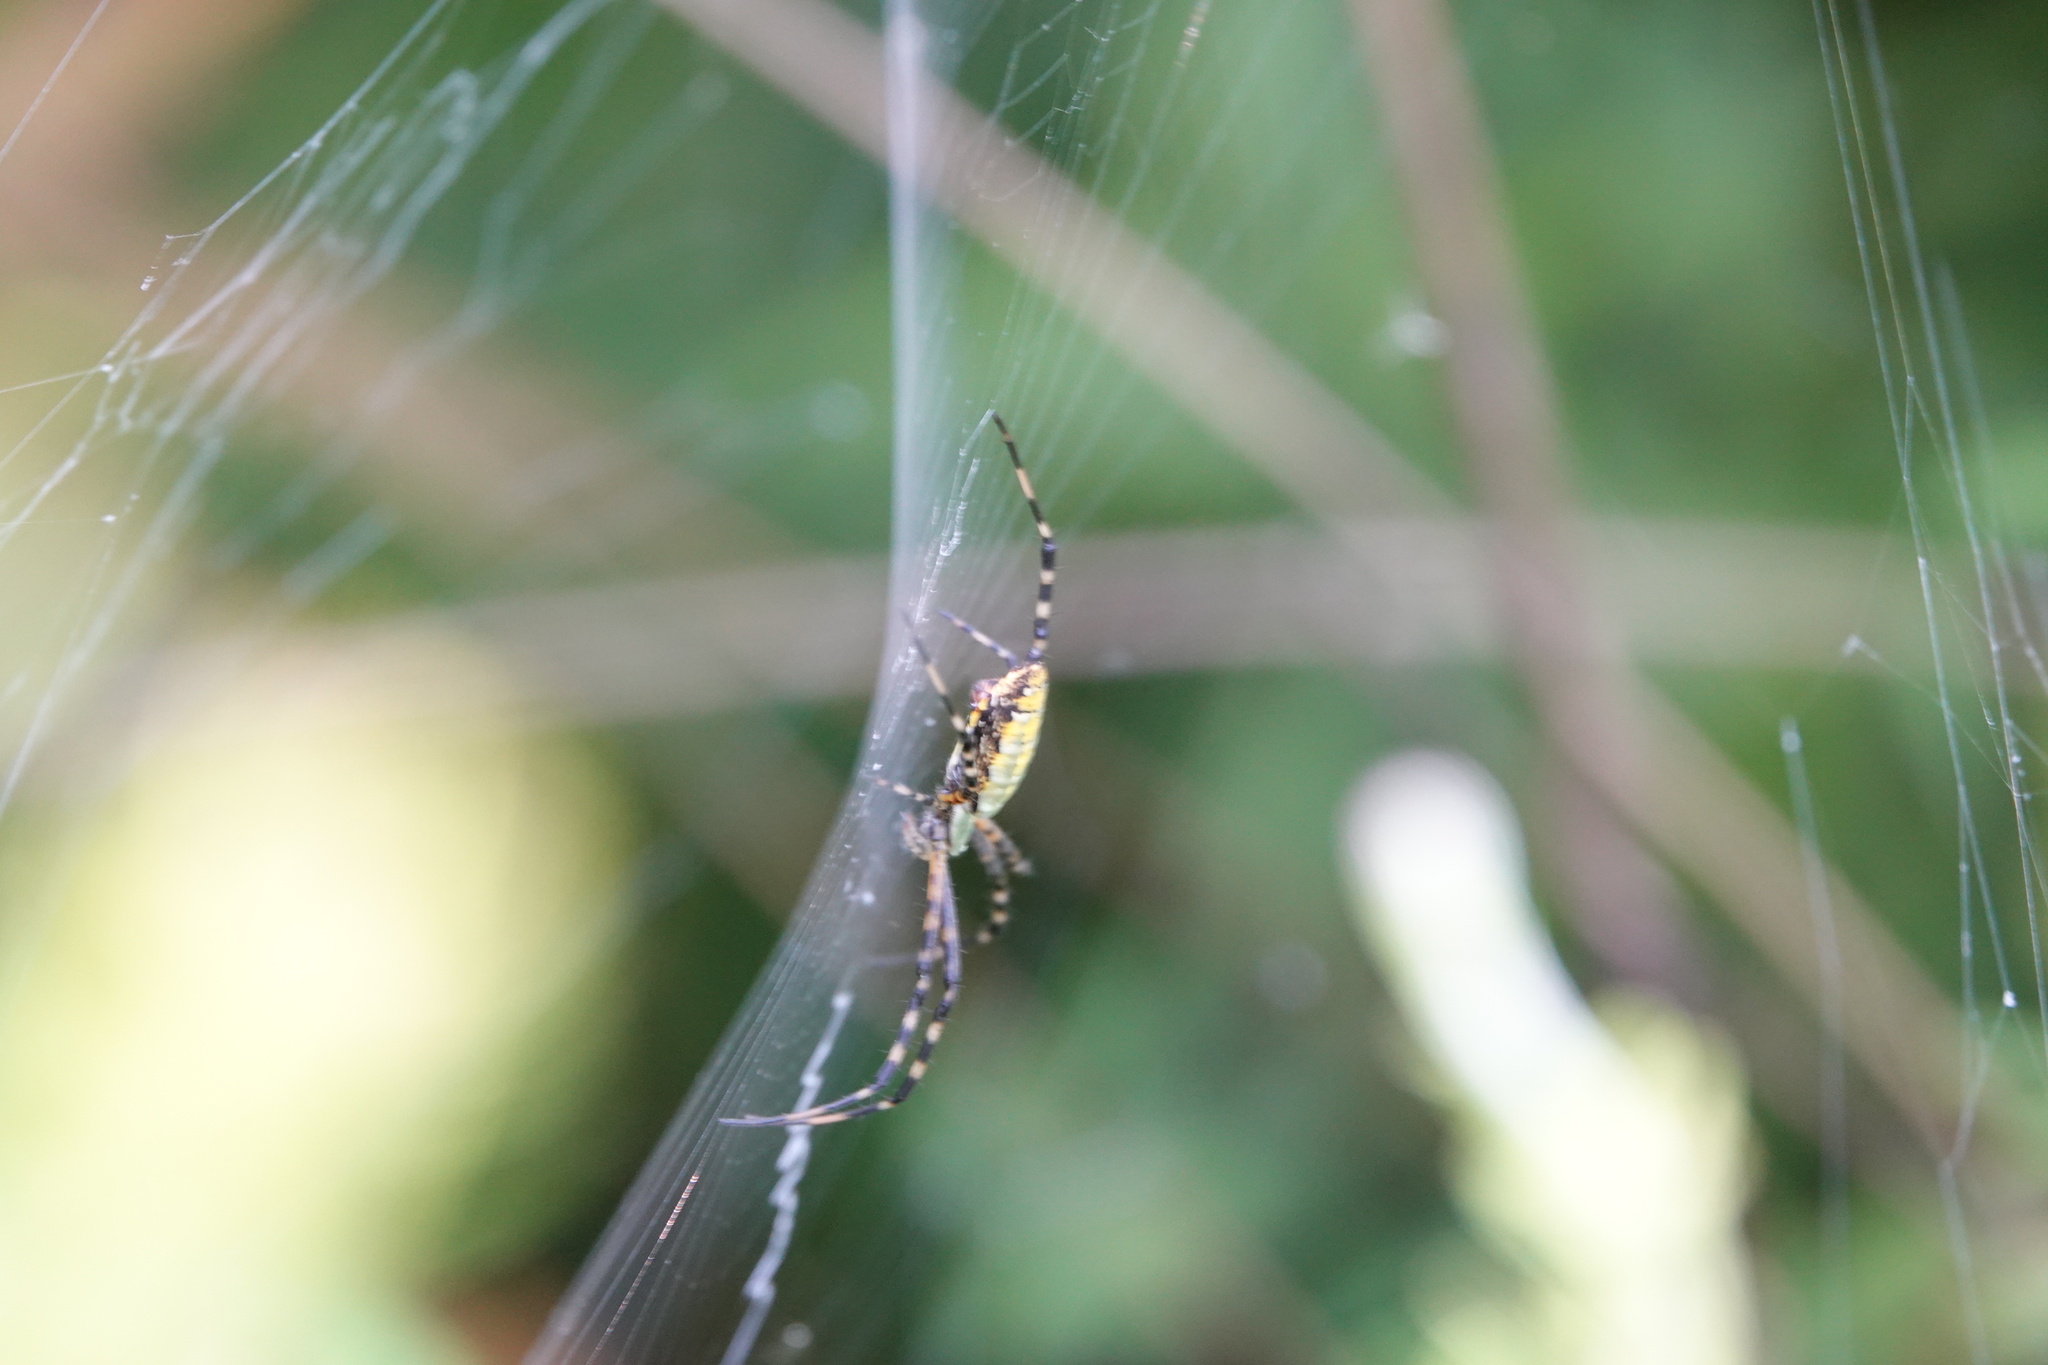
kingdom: Animalia
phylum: Arthropoda
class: Arachnida
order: Araneae
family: Araneidae
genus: Argiope
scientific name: Argiope trifasciata
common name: Banded garden spider
